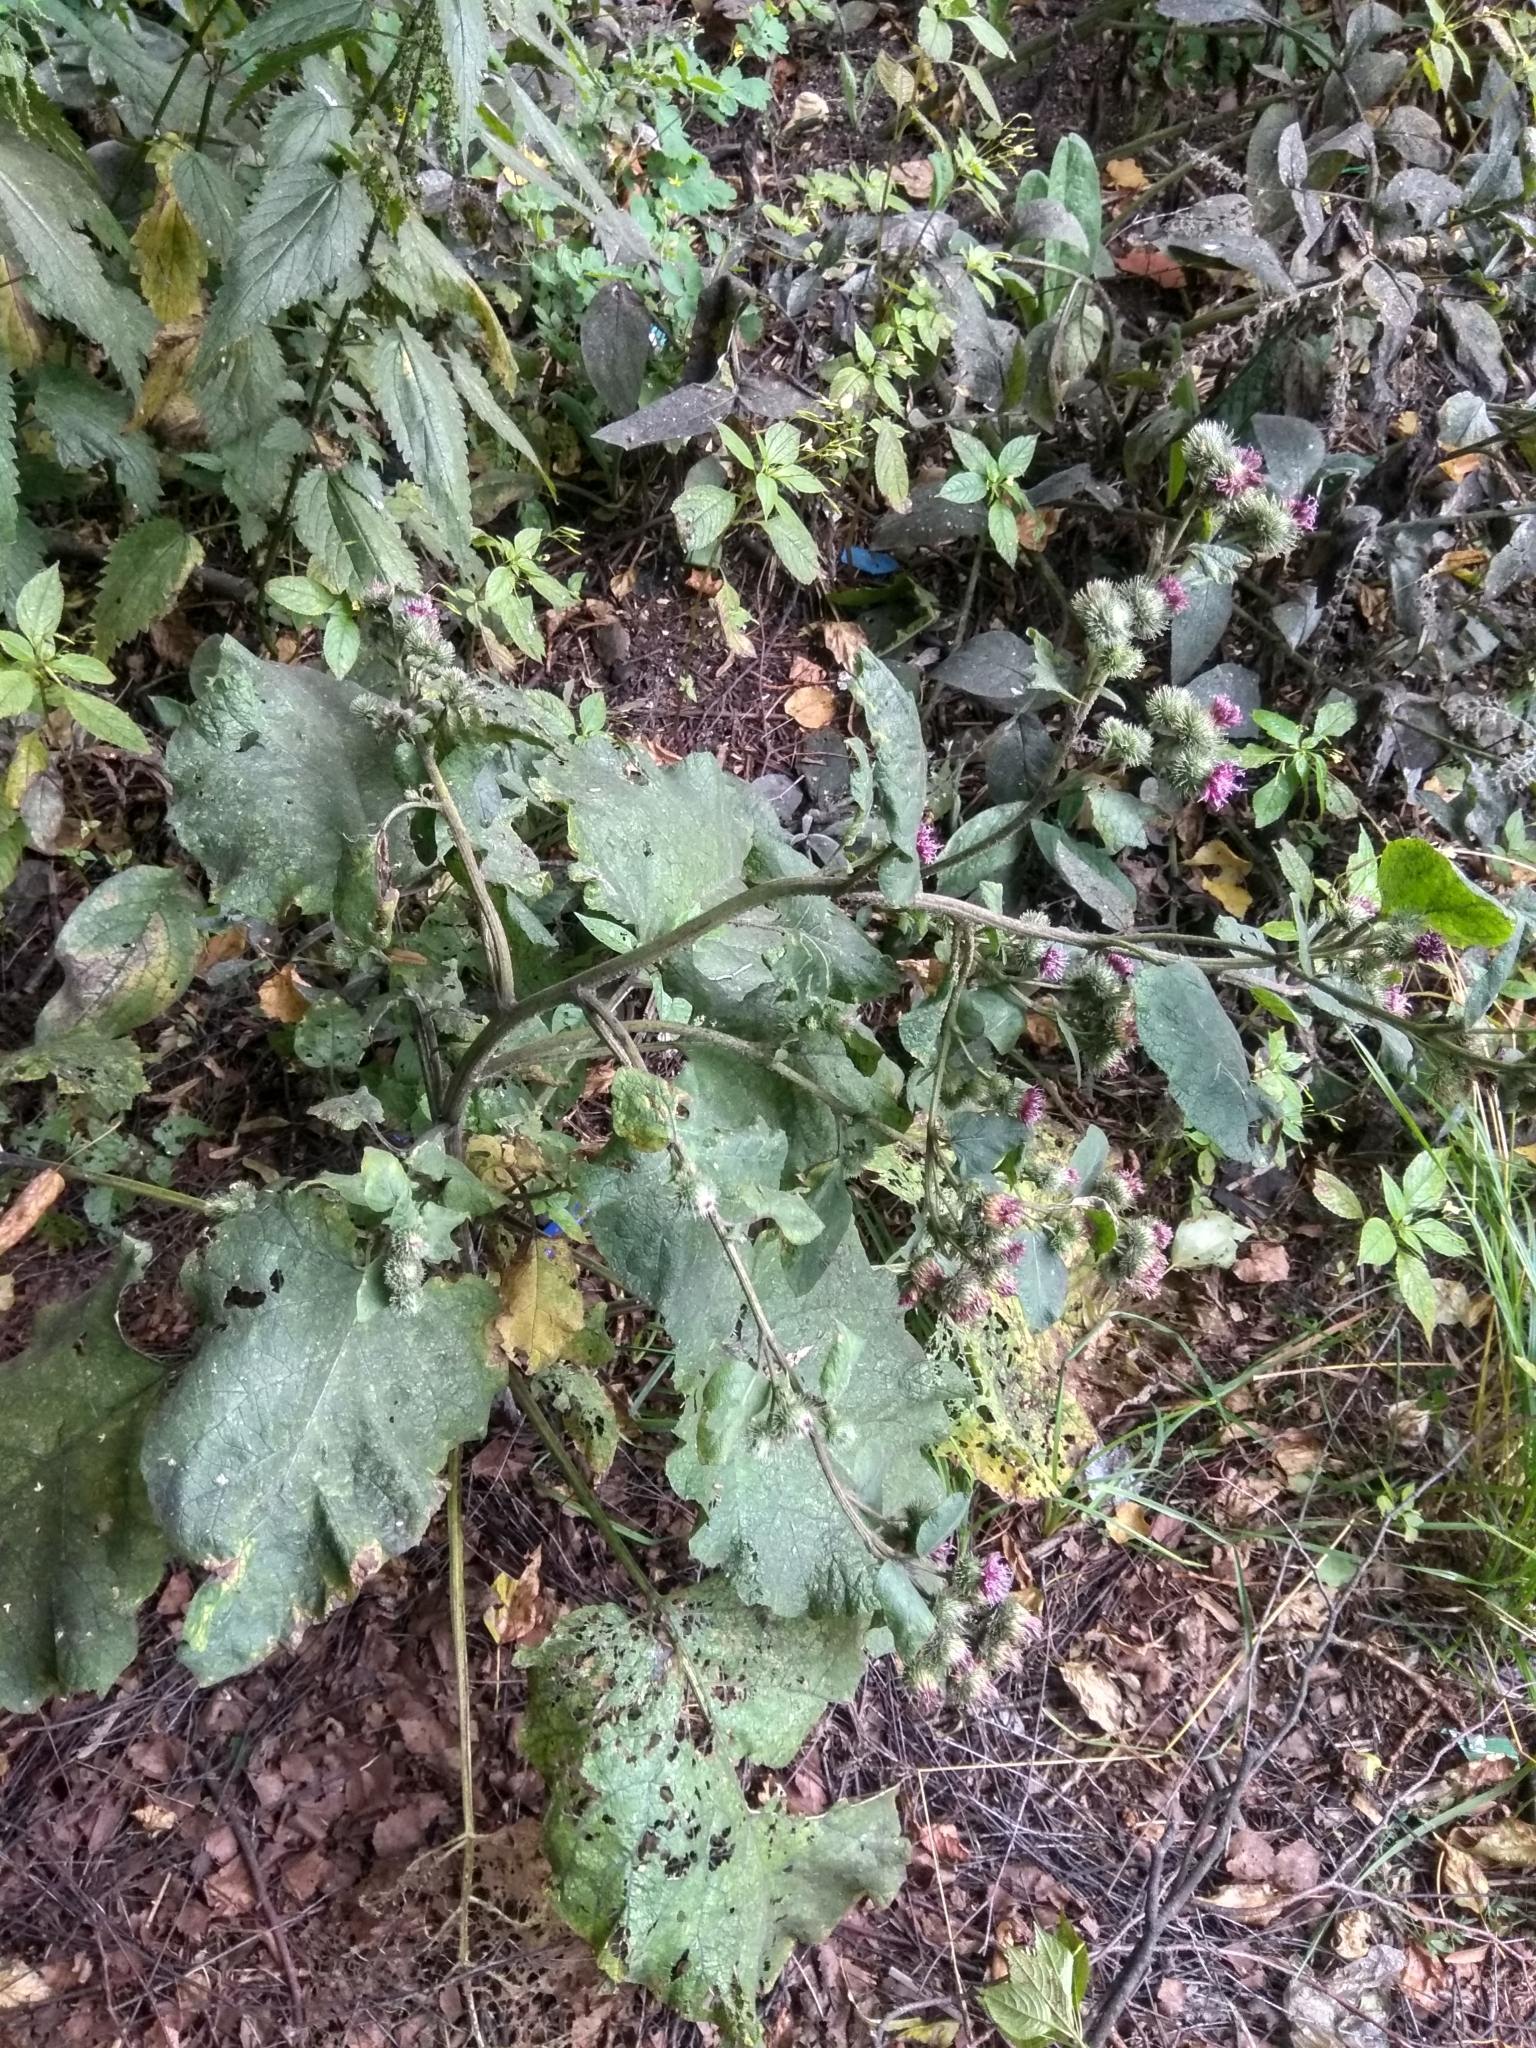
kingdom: Plantae
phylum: Tracheophyta
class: Magnoliopsida
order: Asterales
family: Asteraceae
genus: Arctium
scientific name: Arctium tomentosum
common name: Woolly burdock
